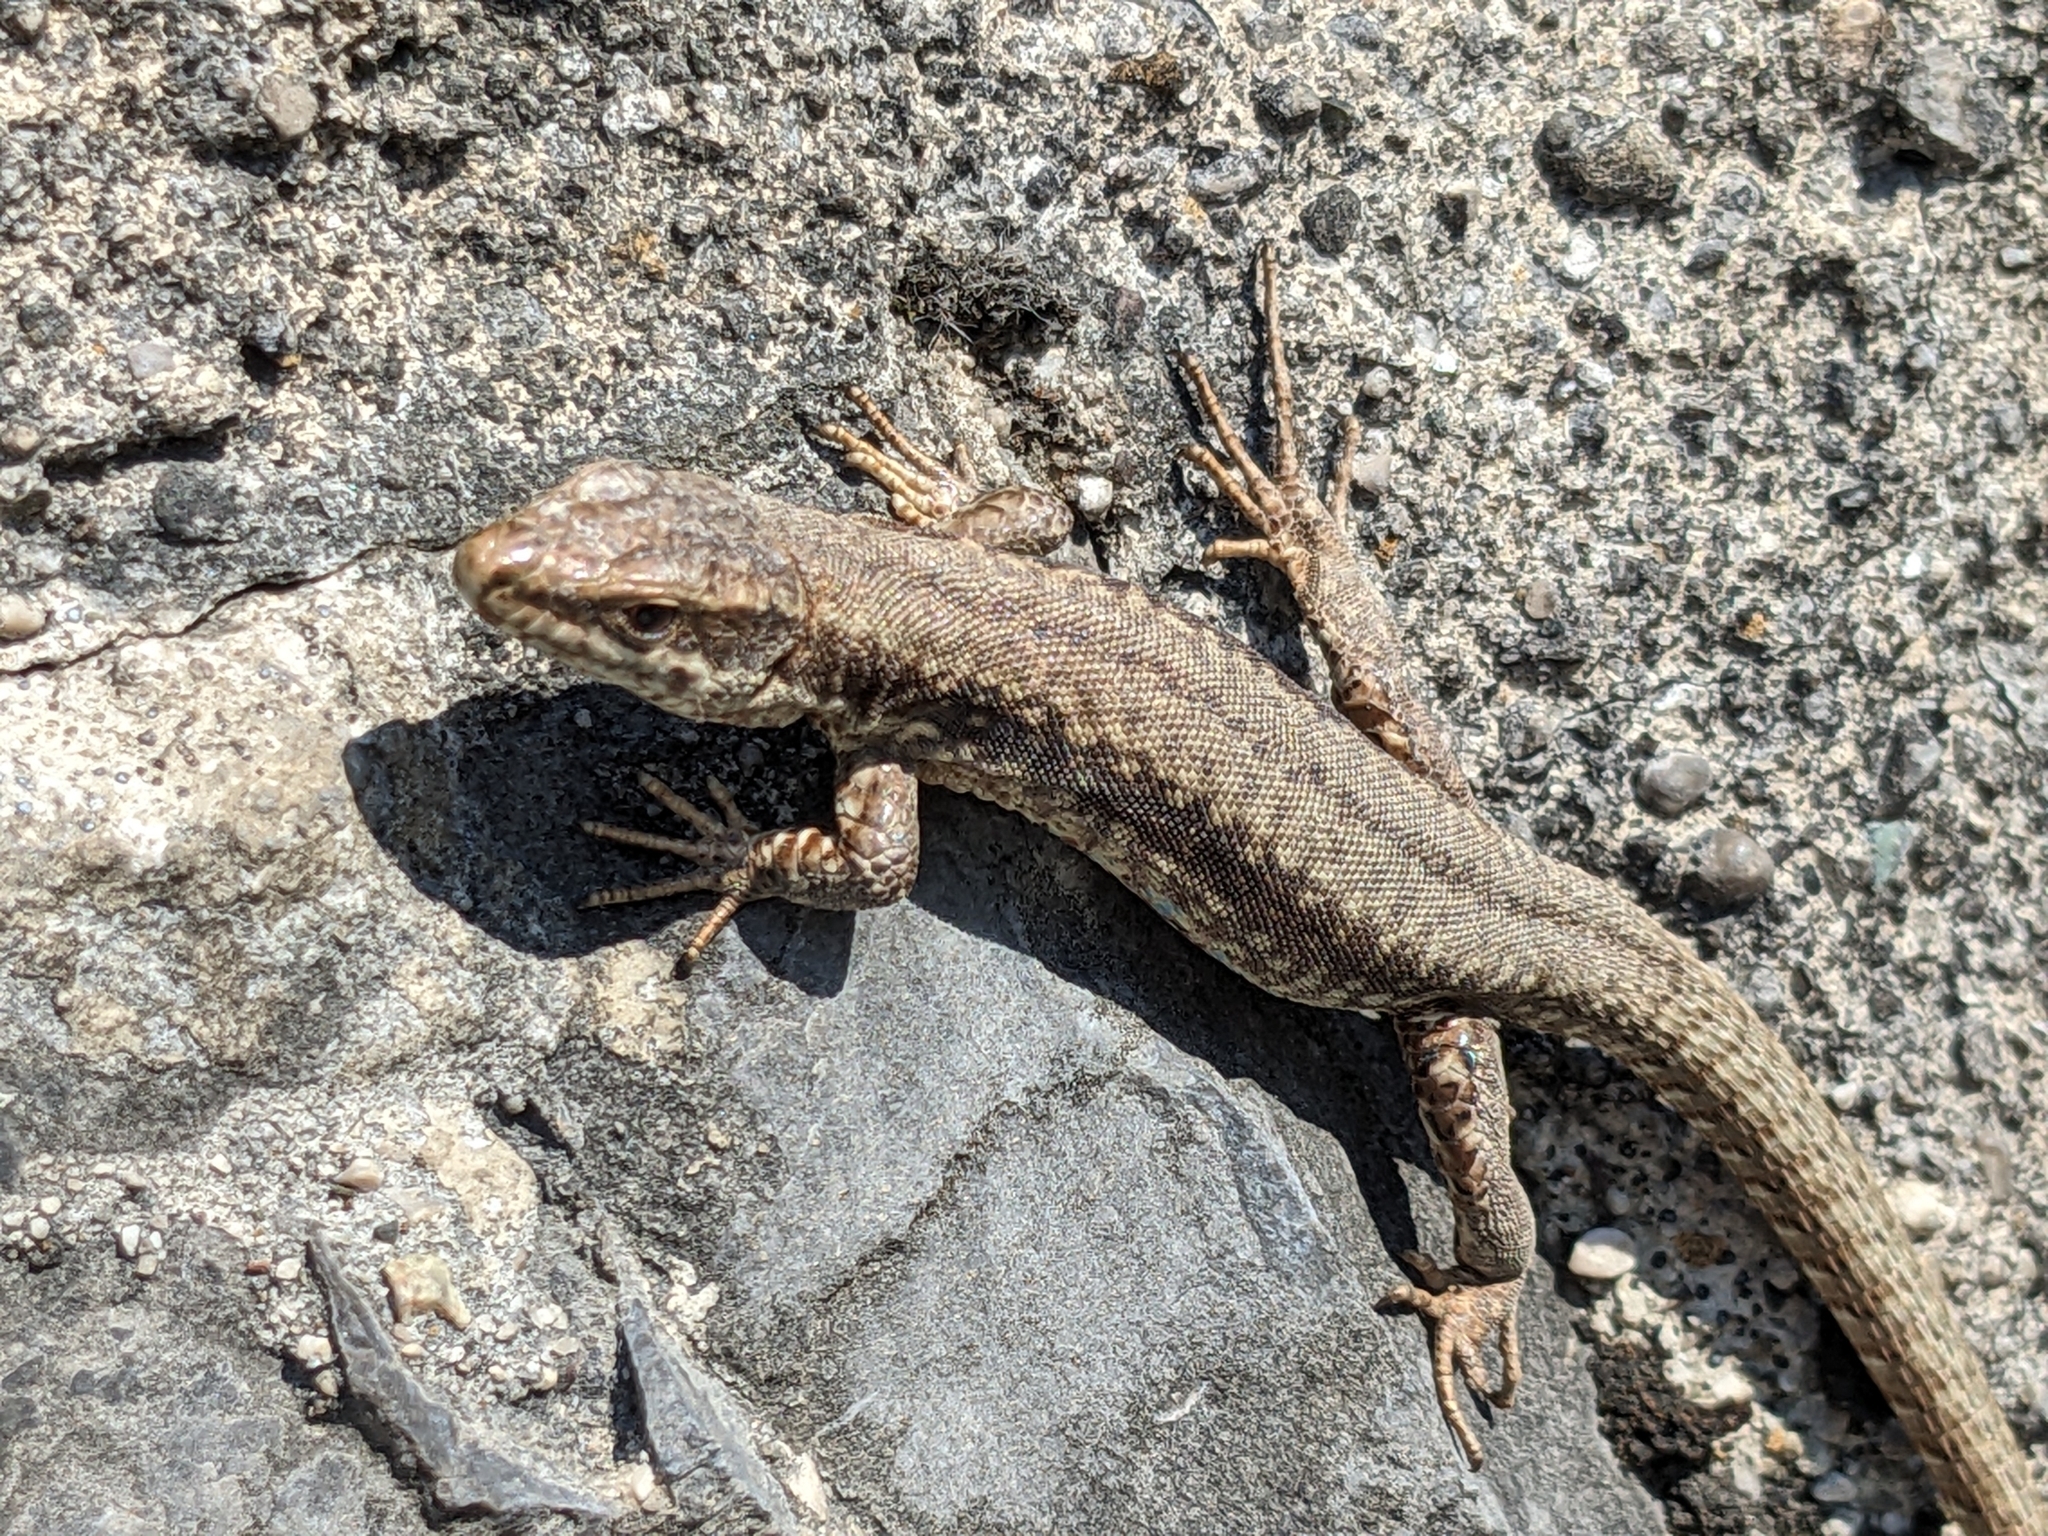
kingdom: Animalia
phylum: Chordata
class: Squamata
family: Lacertidae
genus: Podarcis
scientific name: Podarcis muralis
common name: Common wall lizard
